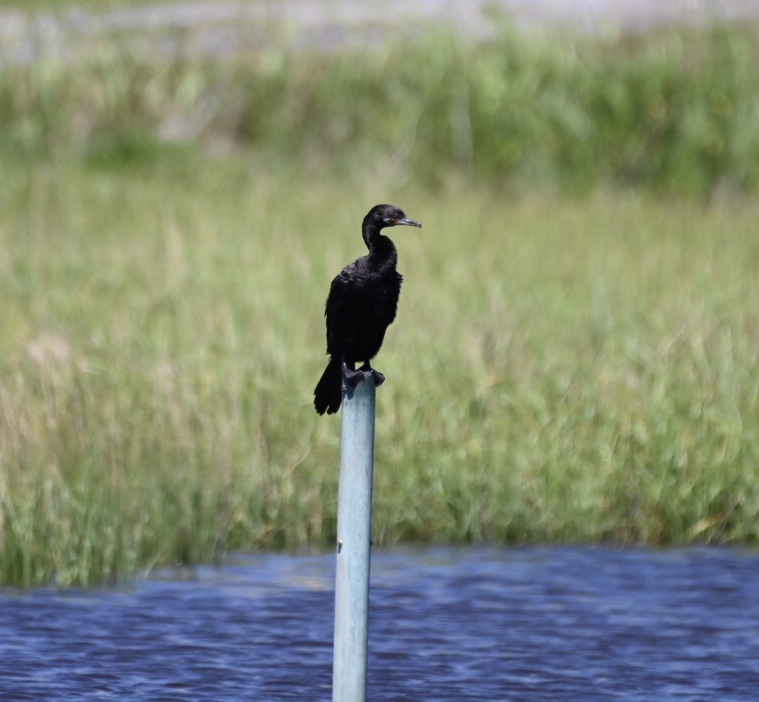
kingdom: Animalia
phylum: Chordata
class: Aves
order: Suliformes
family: Phalacrocoracidae
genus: Phalacrocorax
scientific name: Phalacrocorax brasilianus
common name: Neotropic cormorant
